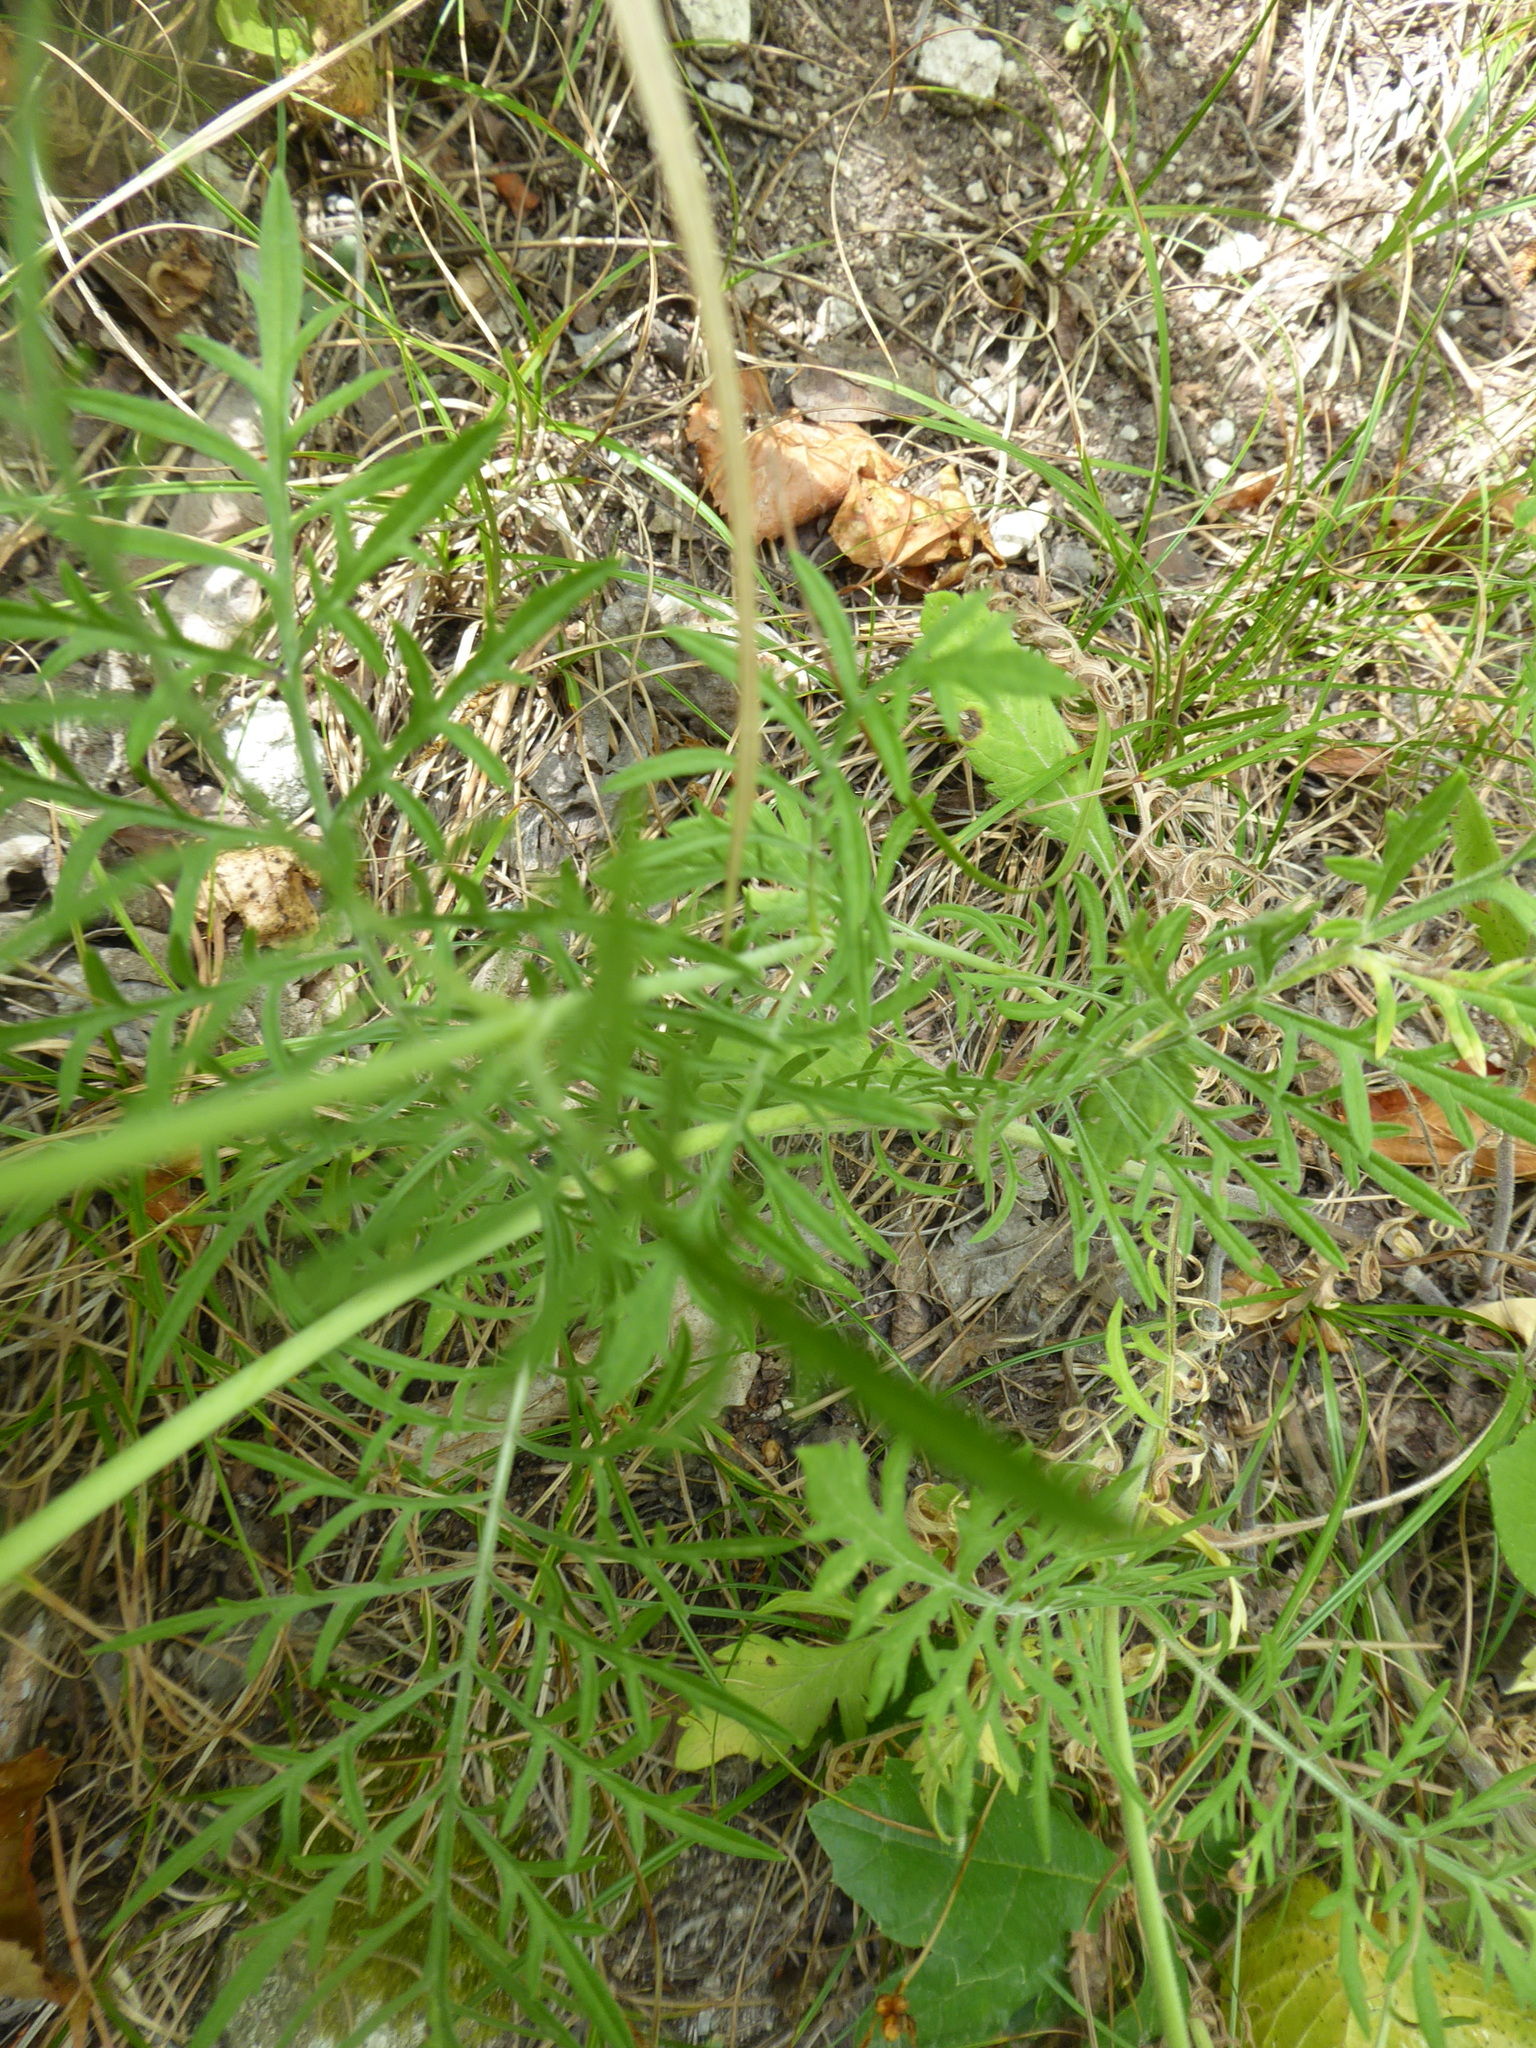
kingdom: Plantae
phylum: Tracheophyta
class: Magnoliopsida
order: Dipsacales
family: Caprifoliaceae
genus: Scabiosa
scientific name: Scabiosa ochroleuca
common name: Cream pincushions
